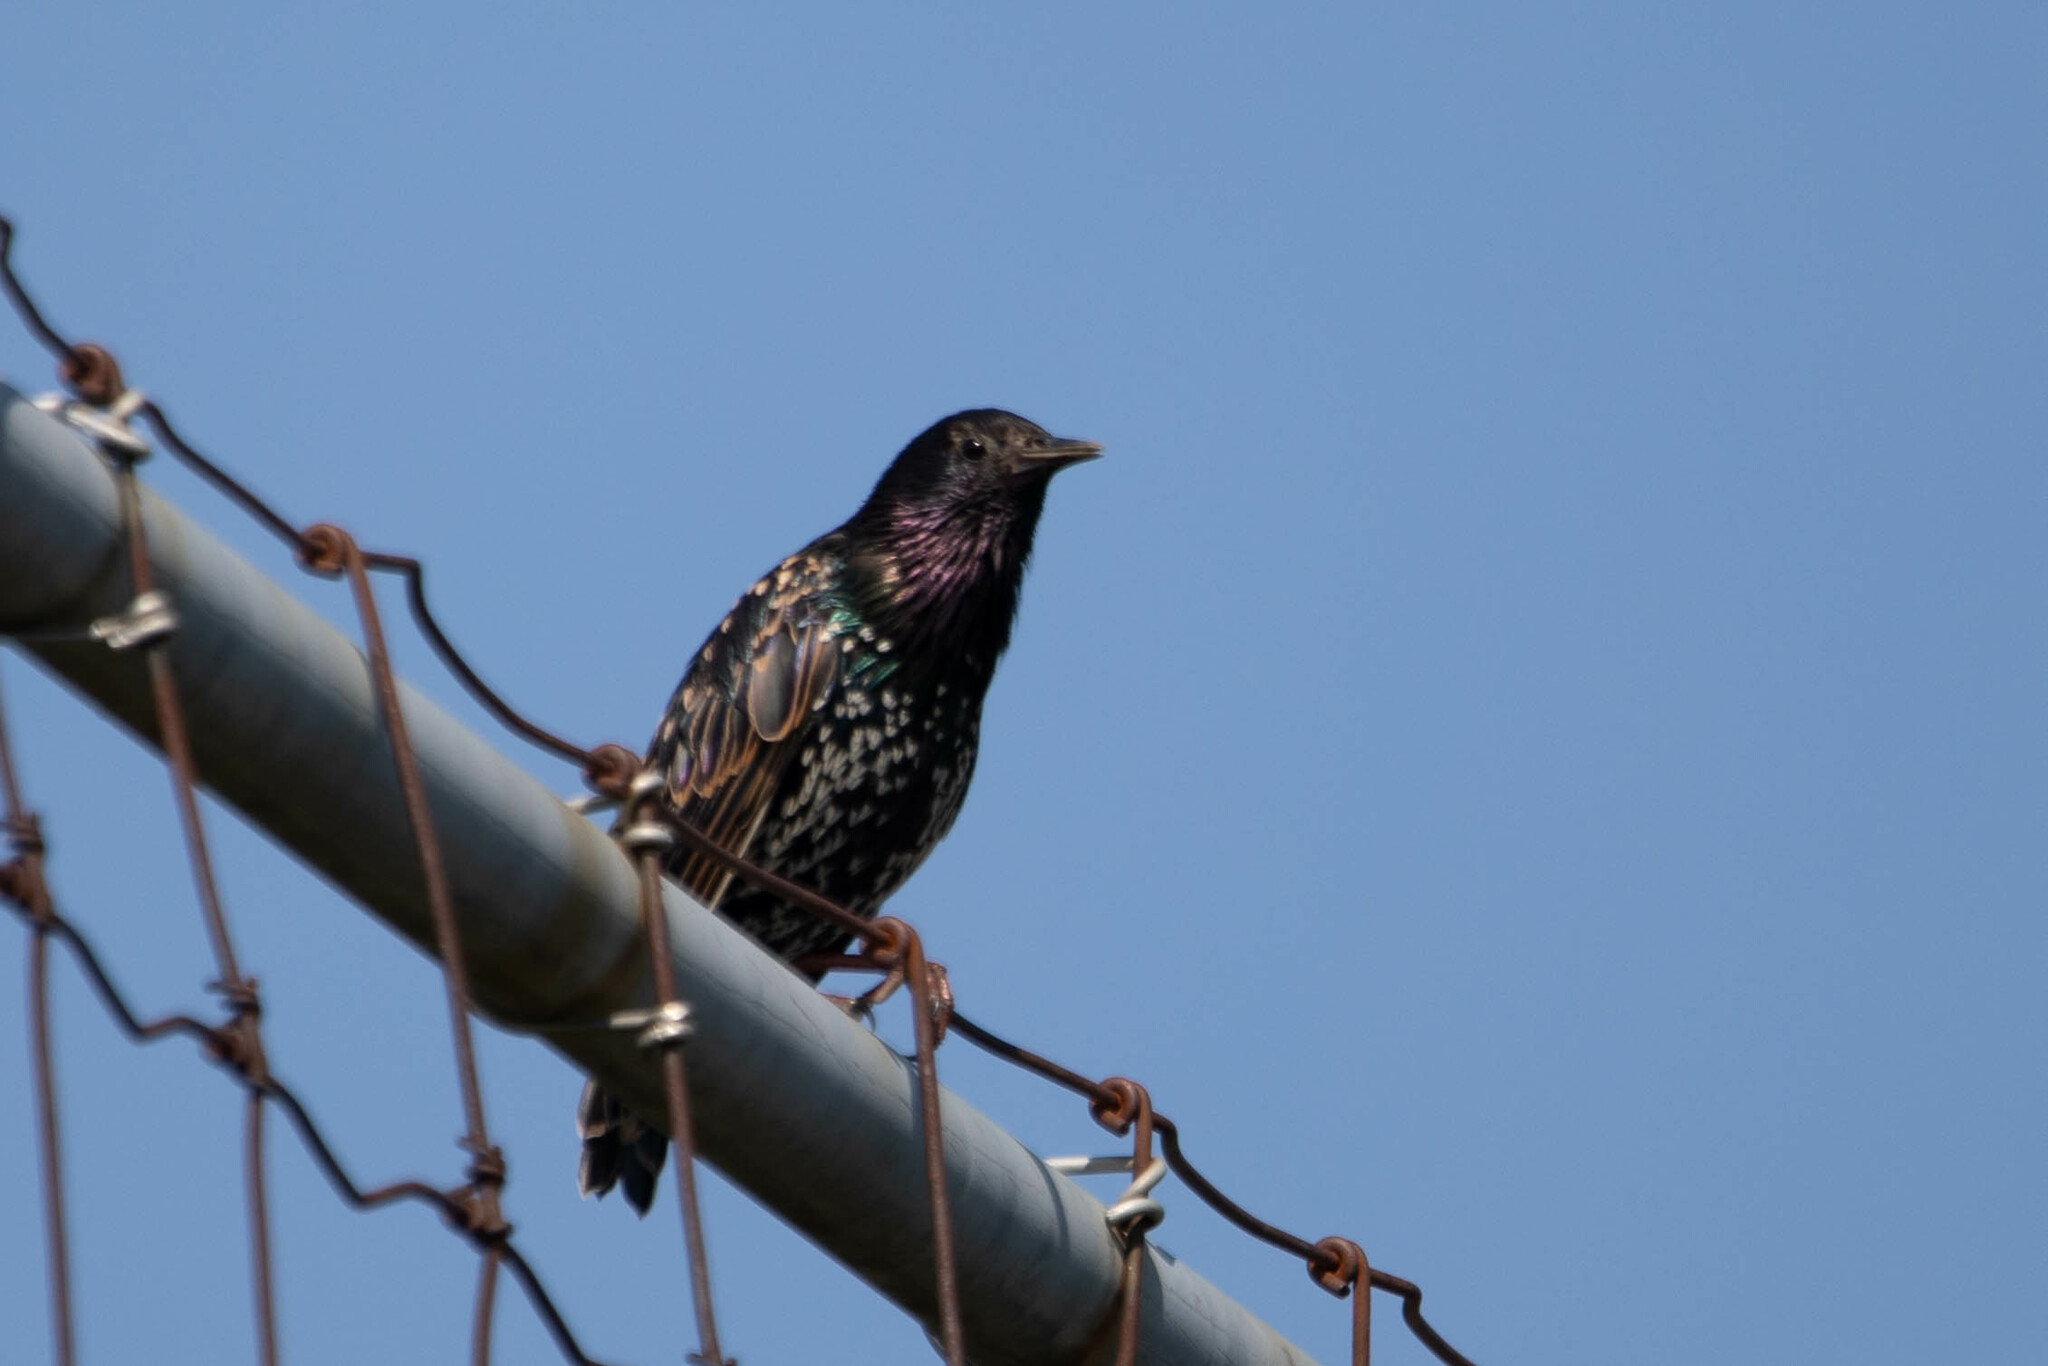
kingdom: Animalia
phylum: Chordata
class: Aves
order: Passeriformes
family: Sturnidae
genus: Sturnus
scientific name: Sturnus vulgaris
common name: Common starling
